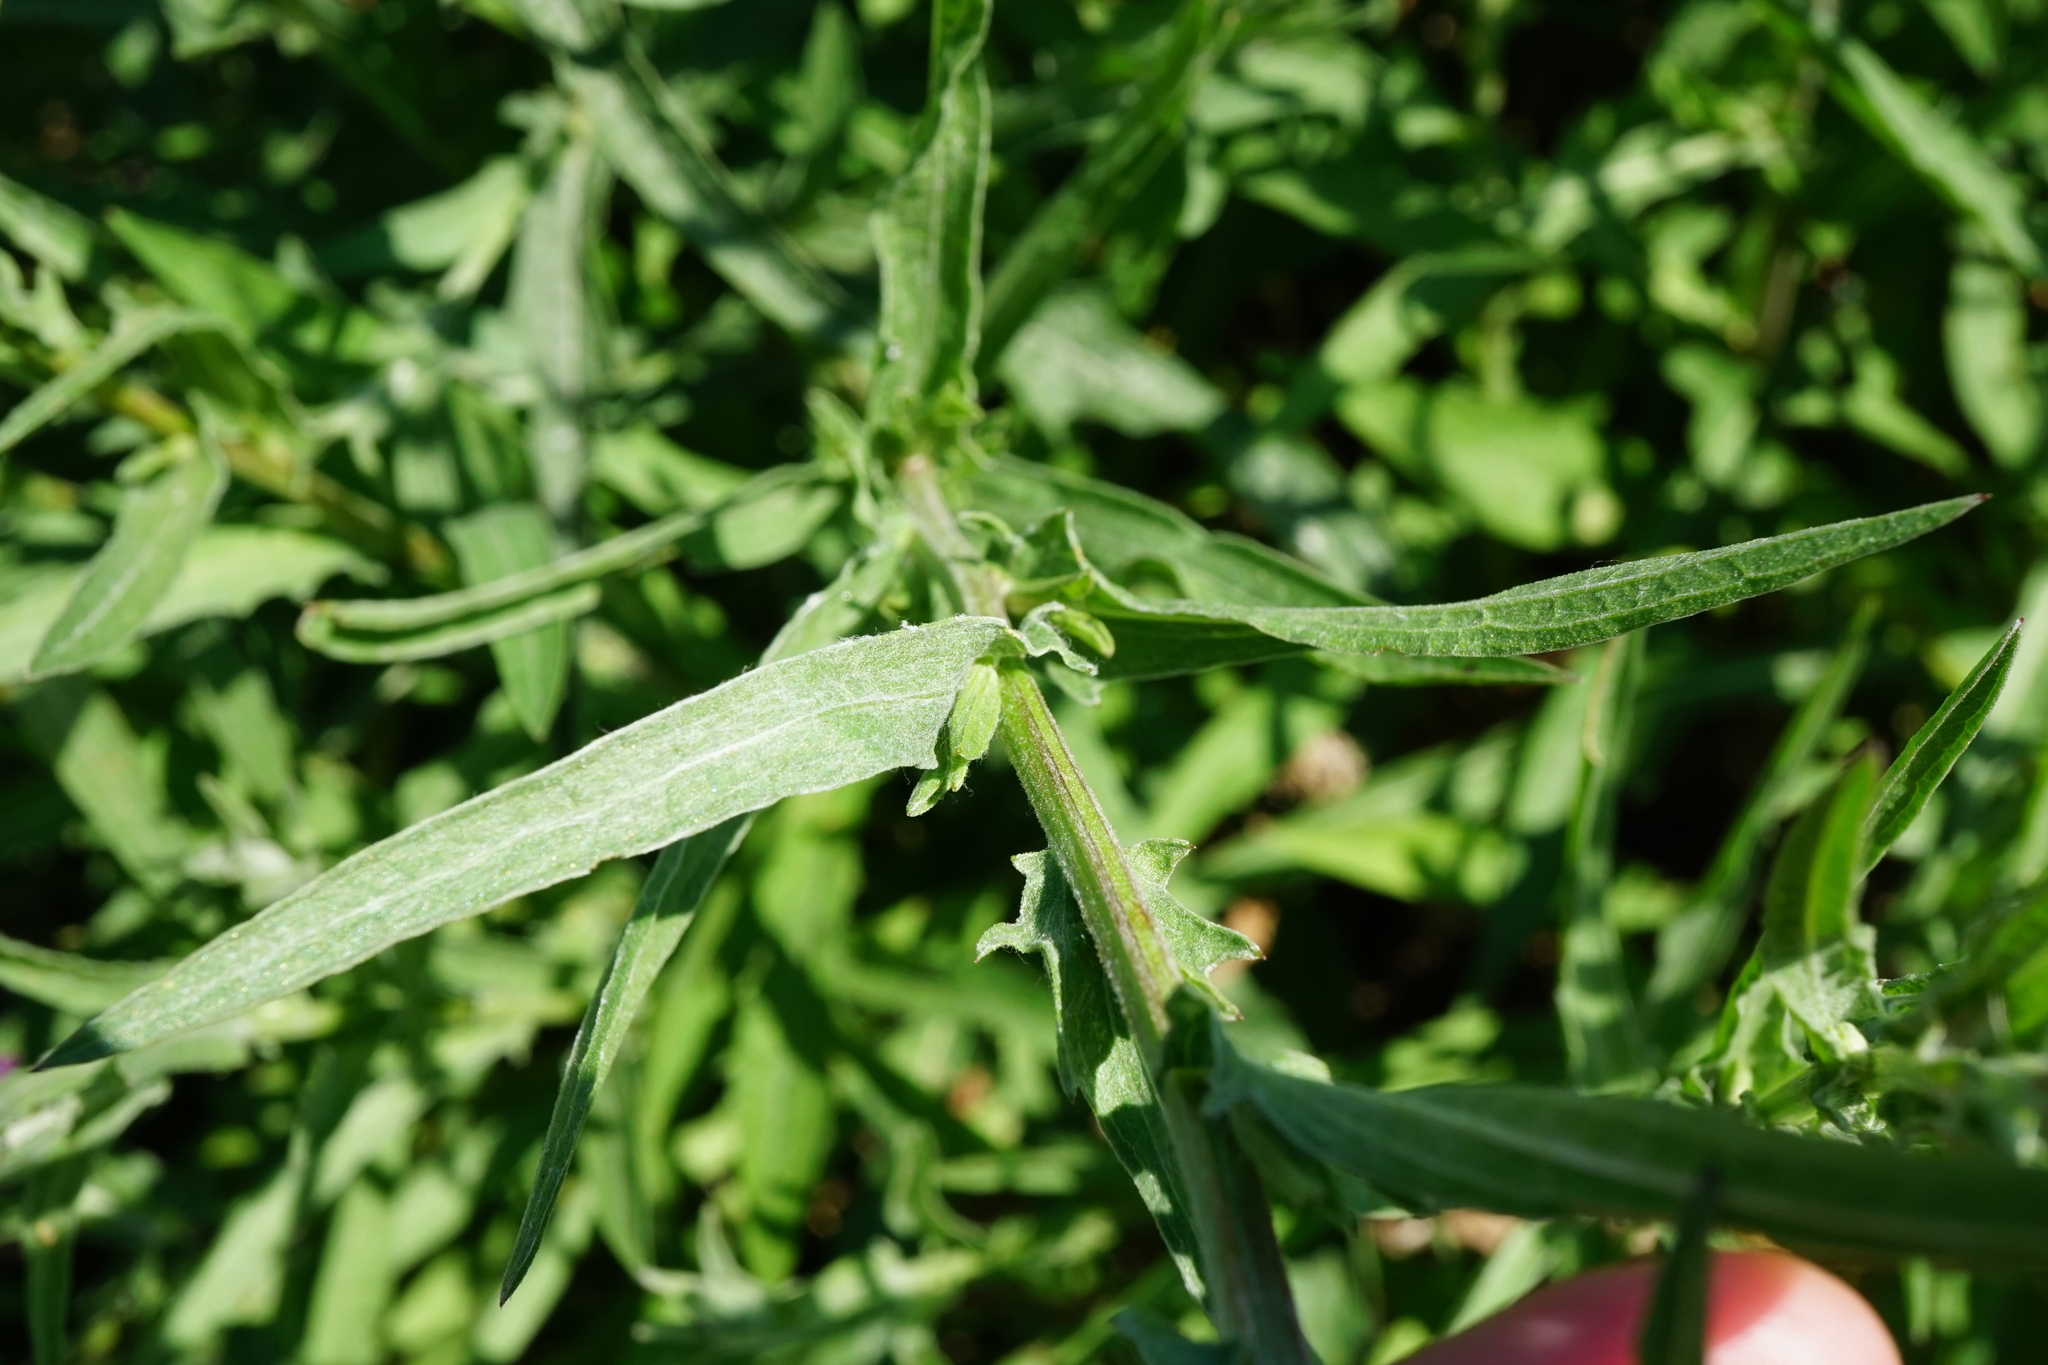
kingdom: Plantae
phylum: Tracheophyta
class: Magnoliopsida
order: Asterales
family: Asteraceae
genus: Centaurea
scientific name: Centaurea jacea
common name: Brown knapweed
